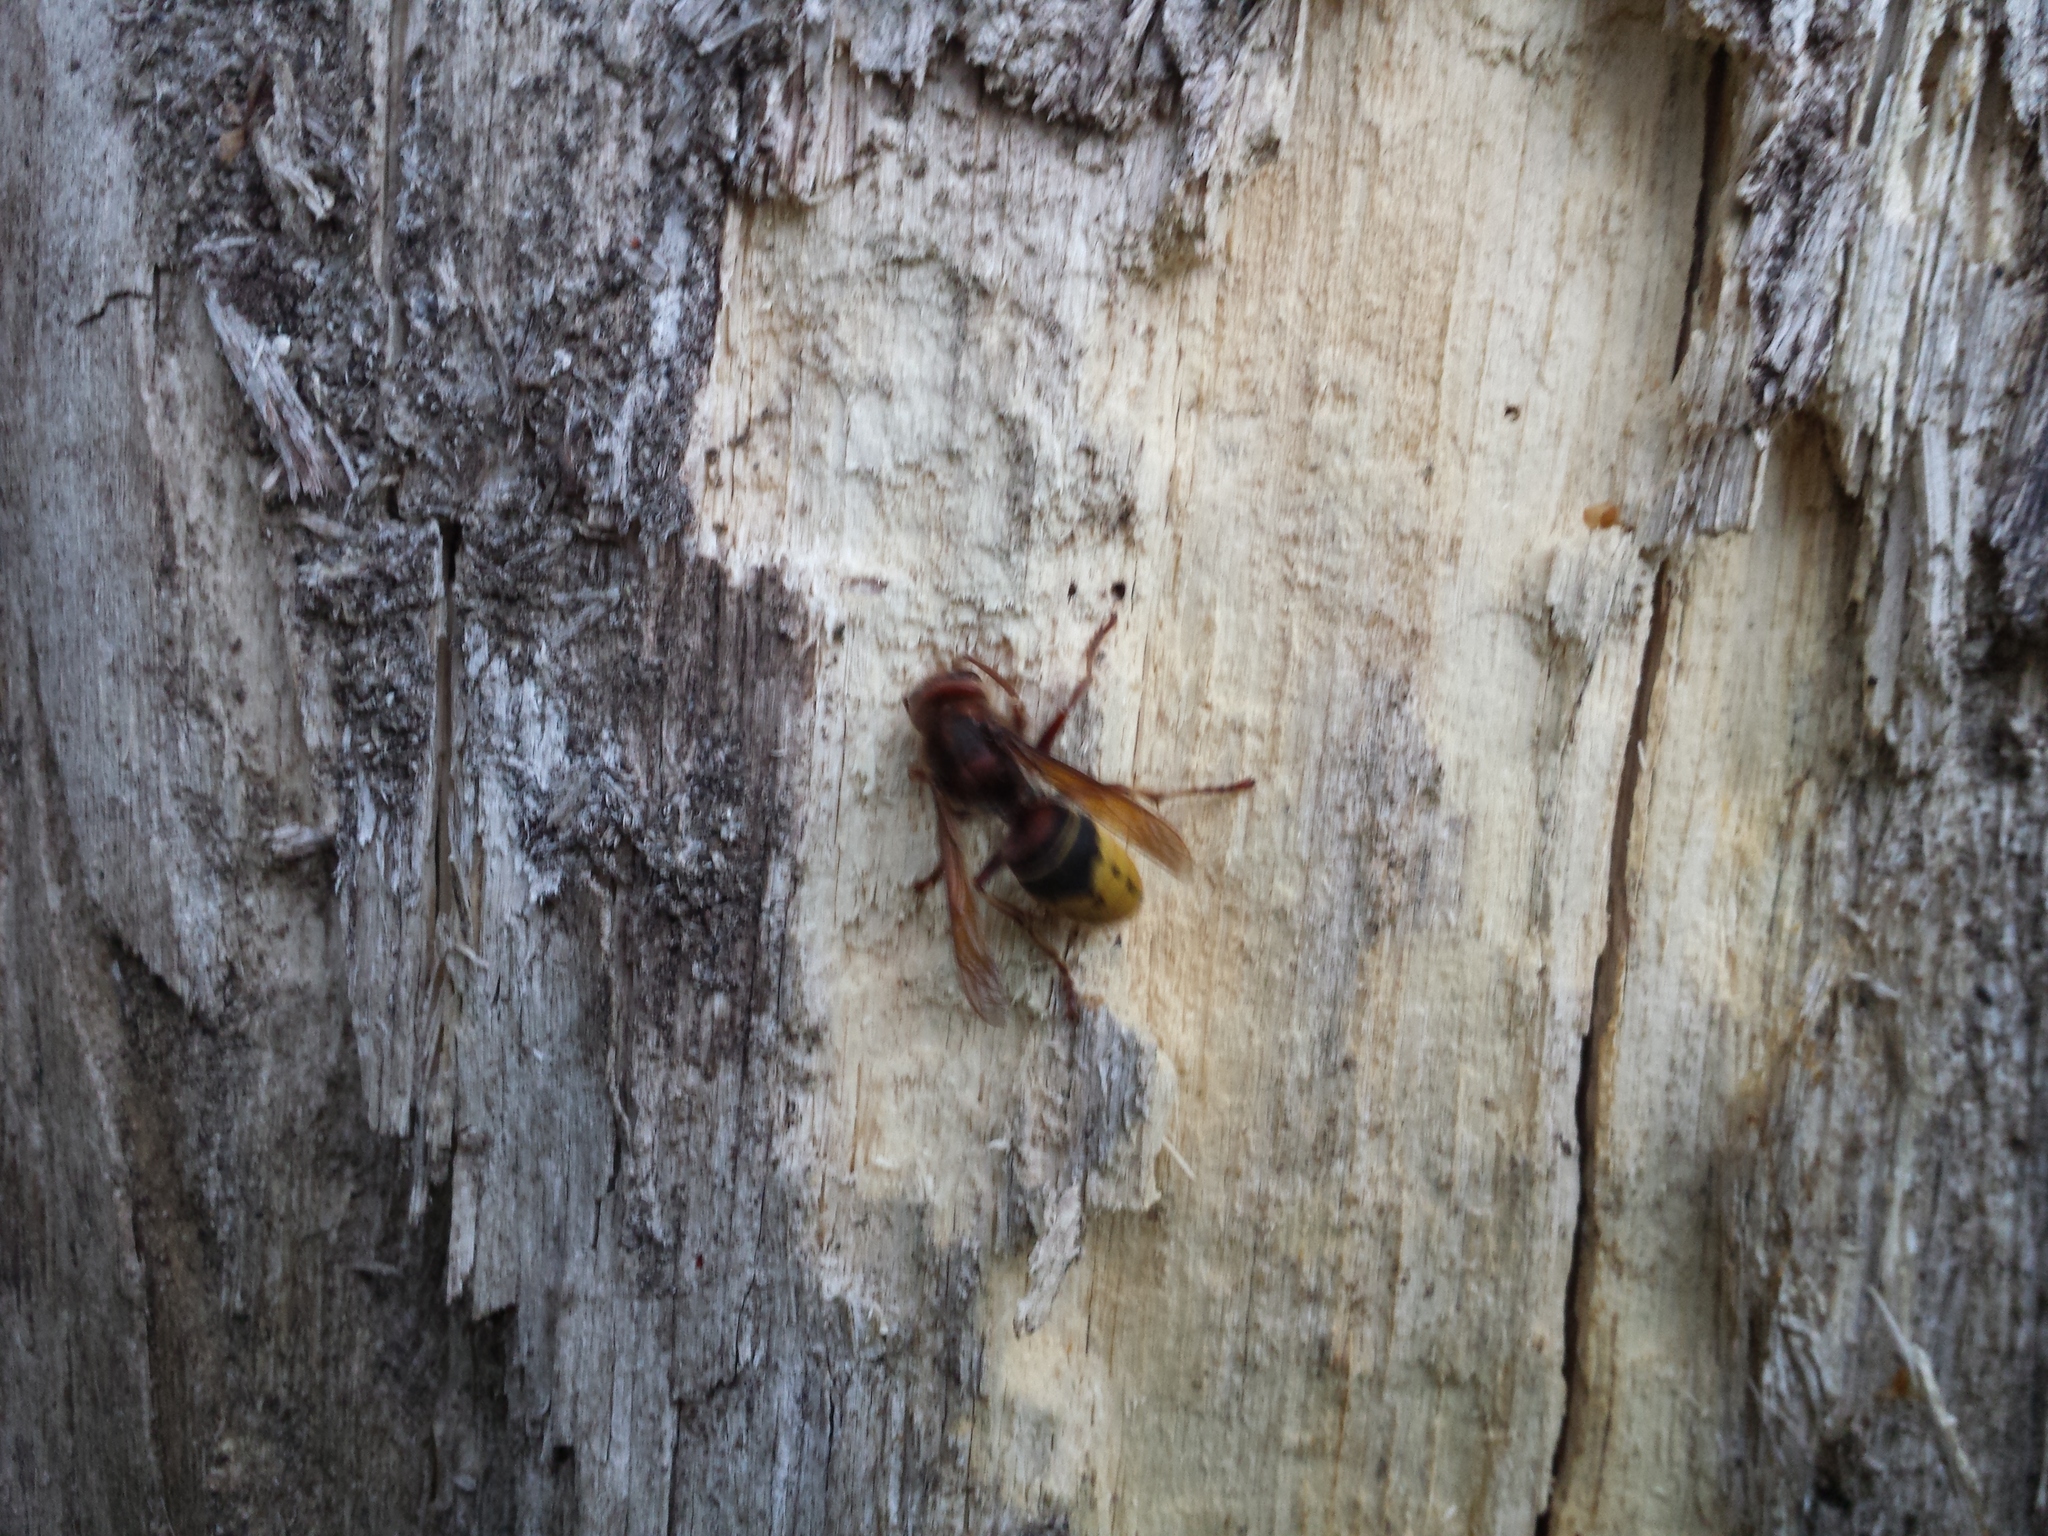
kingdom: Animalia
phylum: Arthropoda
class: Insecta
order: Hymenoptera
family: Vespidae
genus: Vespa
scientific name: Vespa crabro
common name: Hornet
